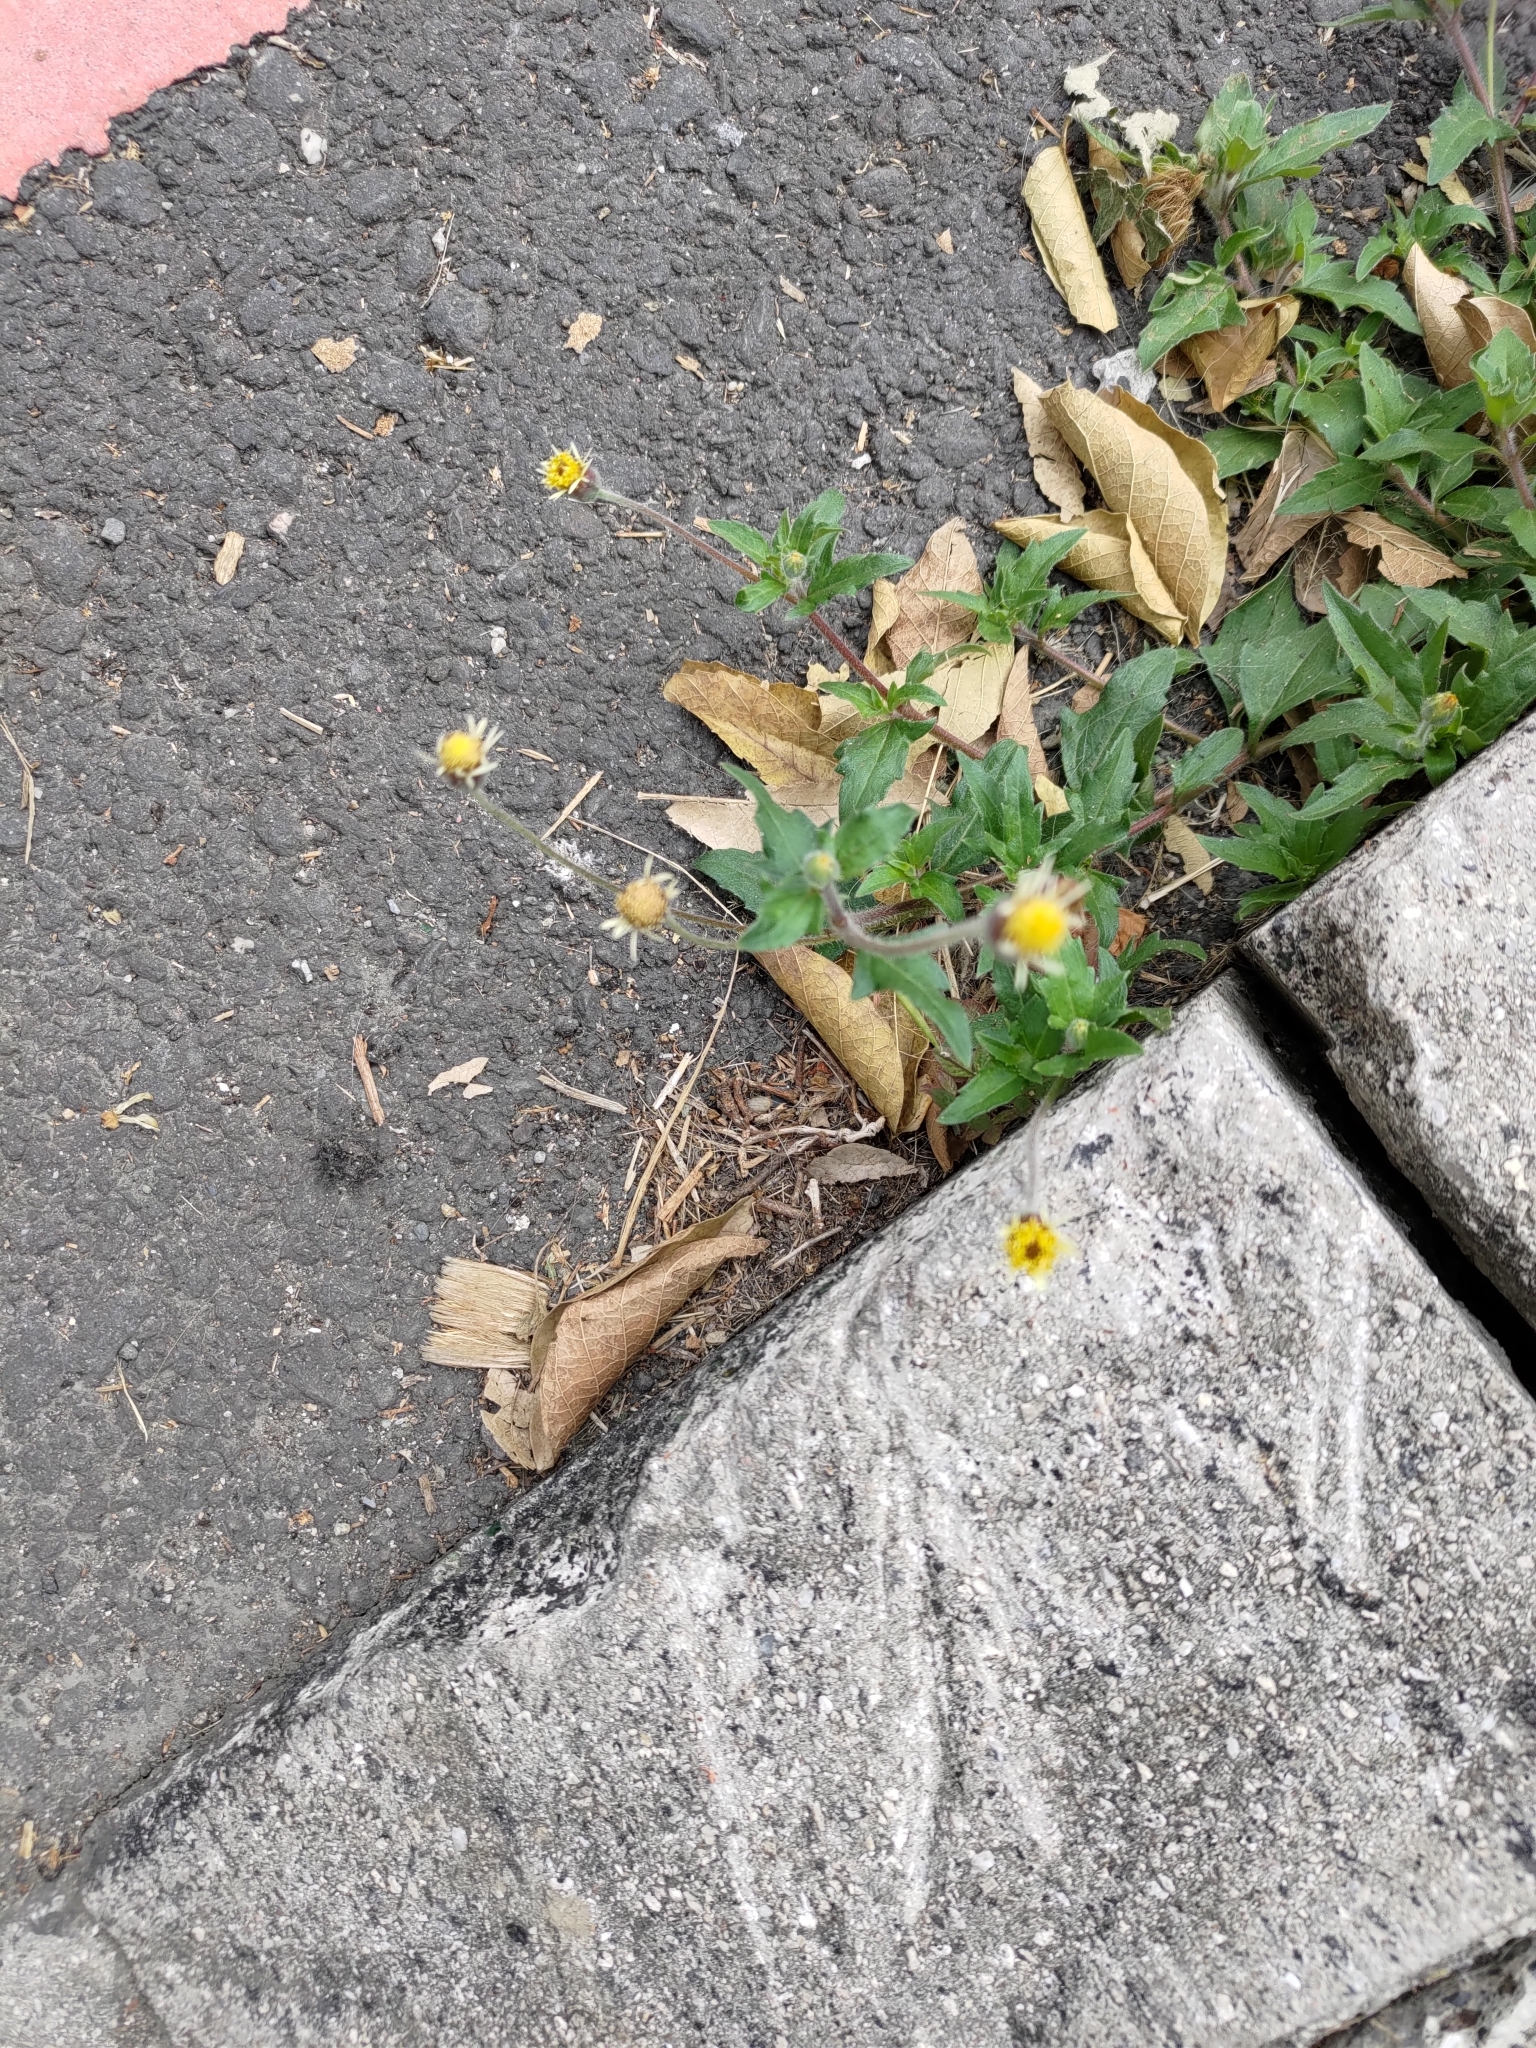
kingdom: Plantae
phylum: Tracheophyta
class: Magnoliopsida
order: Asterales
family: Asteraceae
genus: Tridax
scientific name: Tridax procumbens
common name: Coatbuttons
